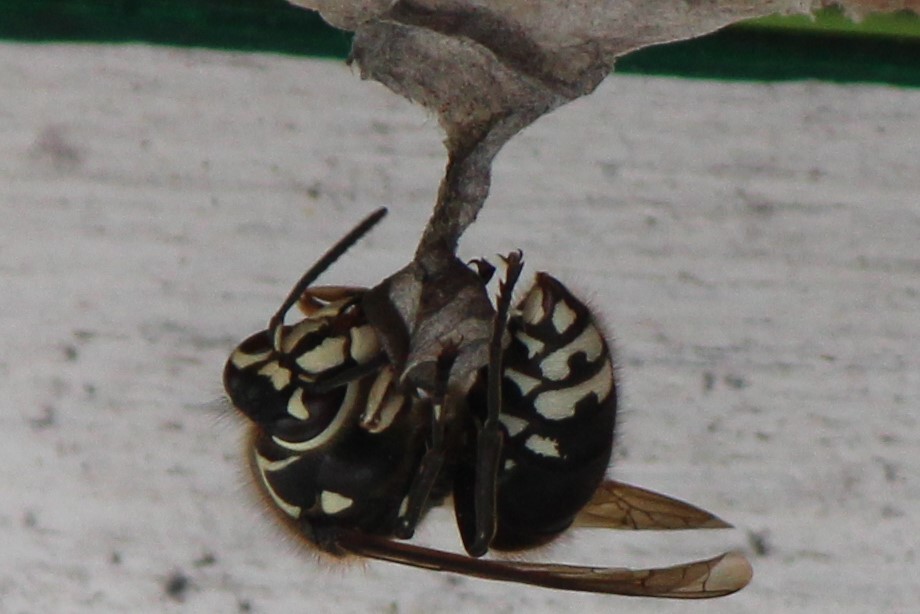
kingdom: Animalia
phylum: Arthropoda
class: Insecta
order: Hymenoptera
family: Vespidae
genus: Dolichovespula
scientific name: Dolichovespula maculata
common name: Bald-faced hornet
